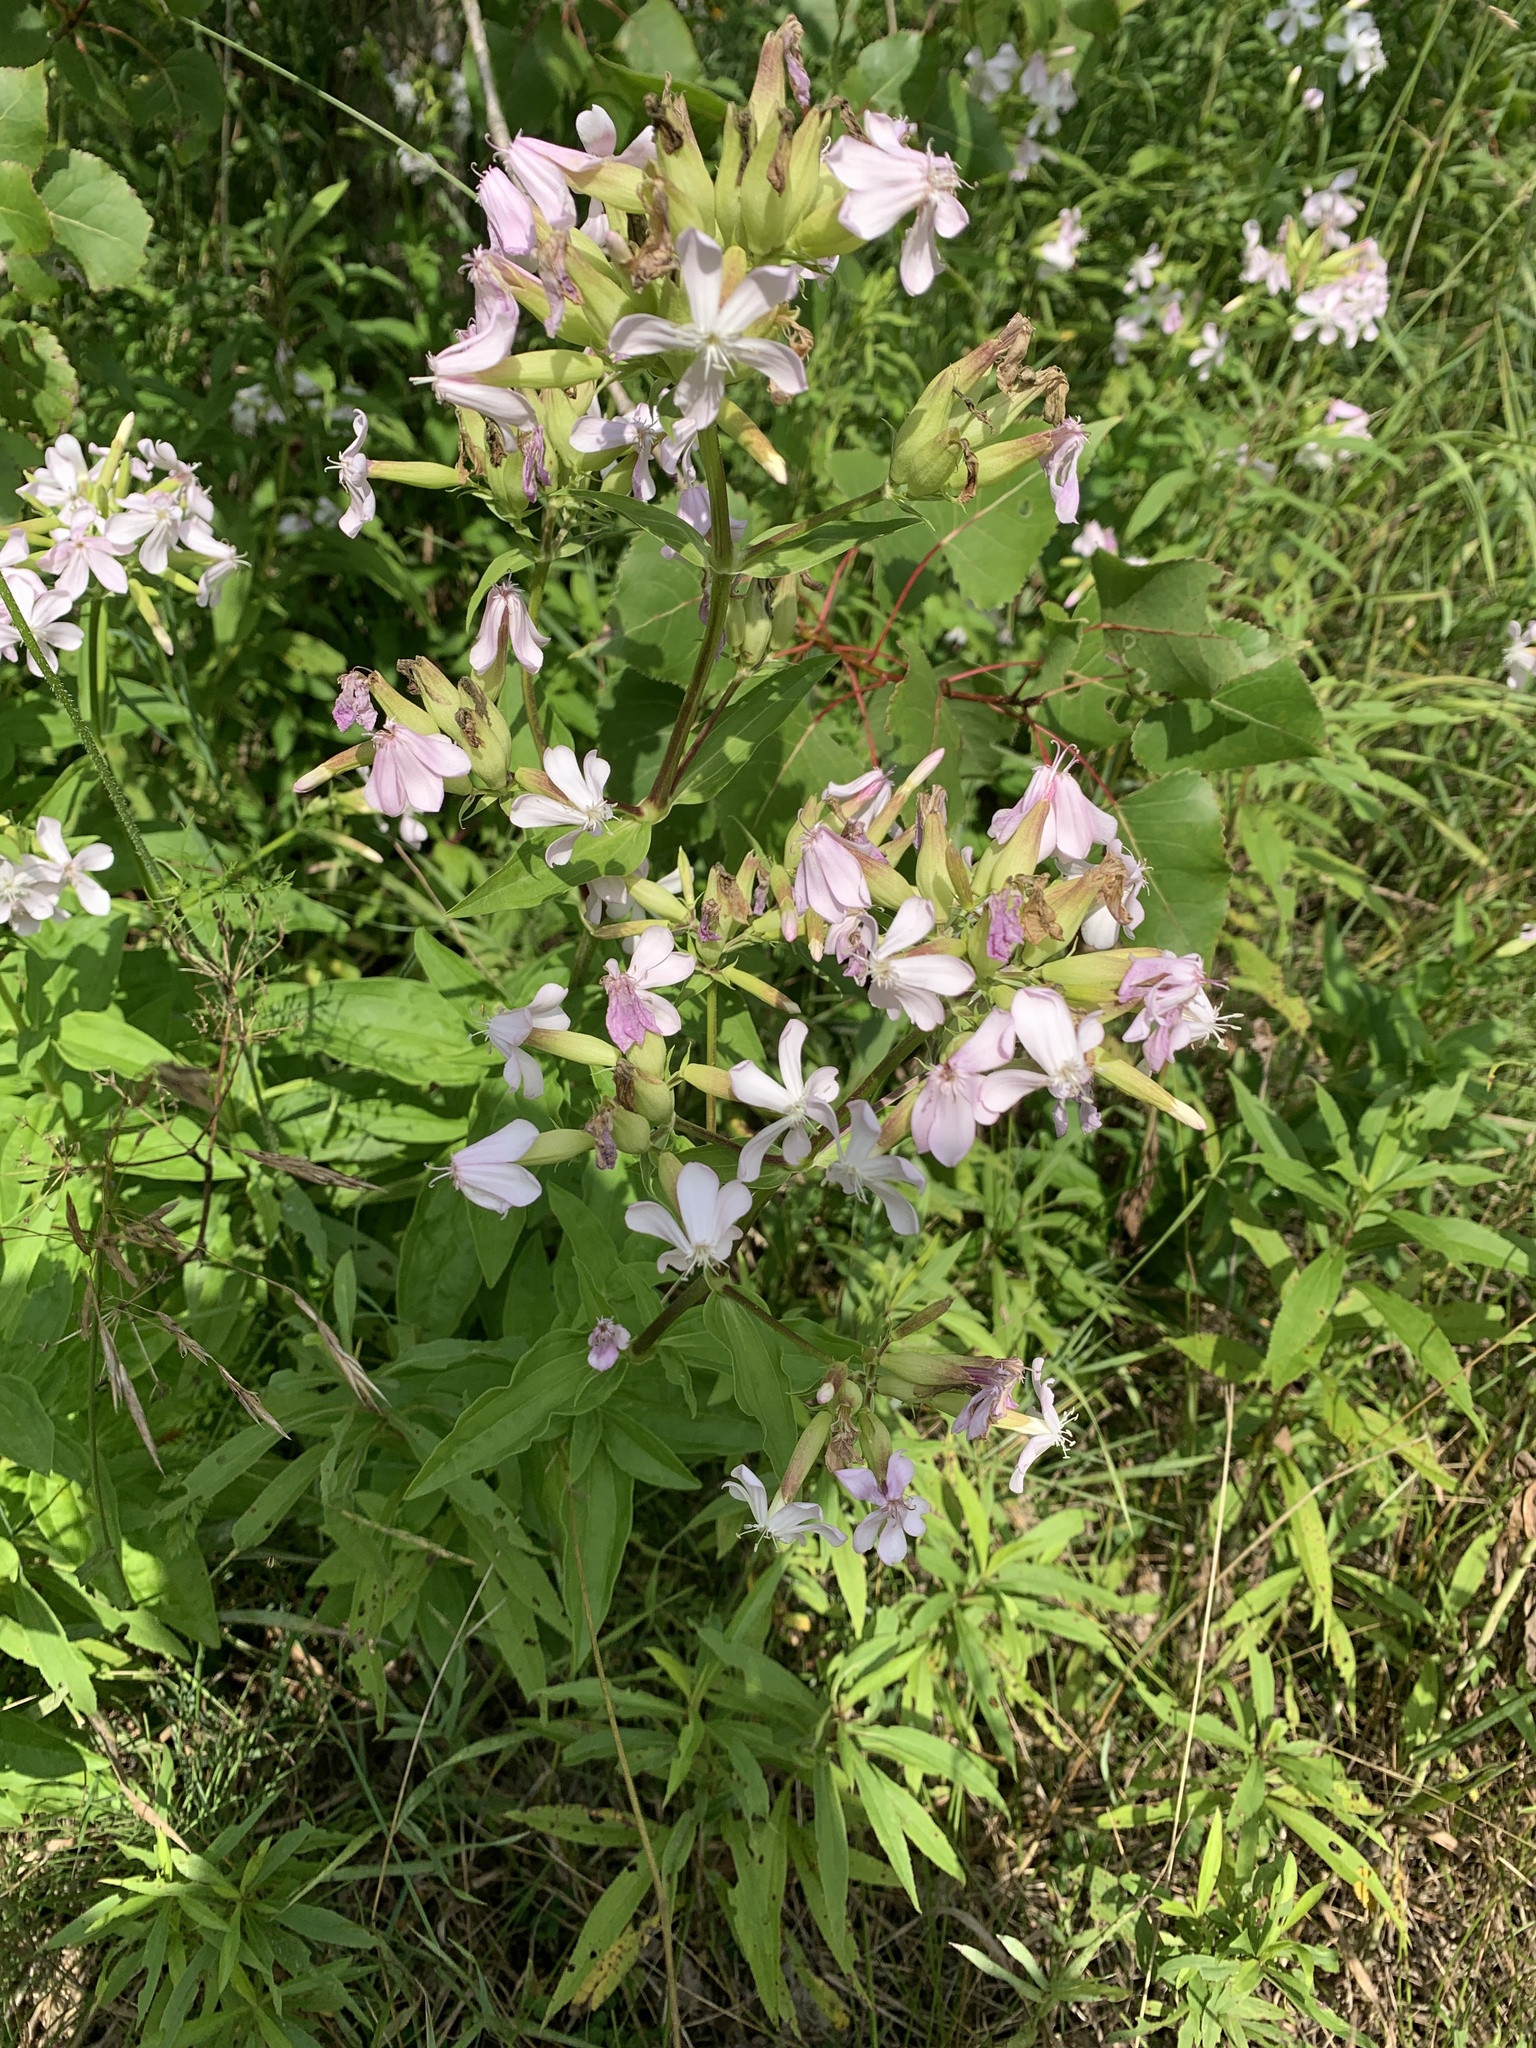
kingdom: Plantae
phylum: Tracheophyta
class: Magnoliopsida
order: Caryophyllales
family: Caryophyllaceae
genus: Saponaria
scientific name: Saponaria officinalis
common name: Soapwort
